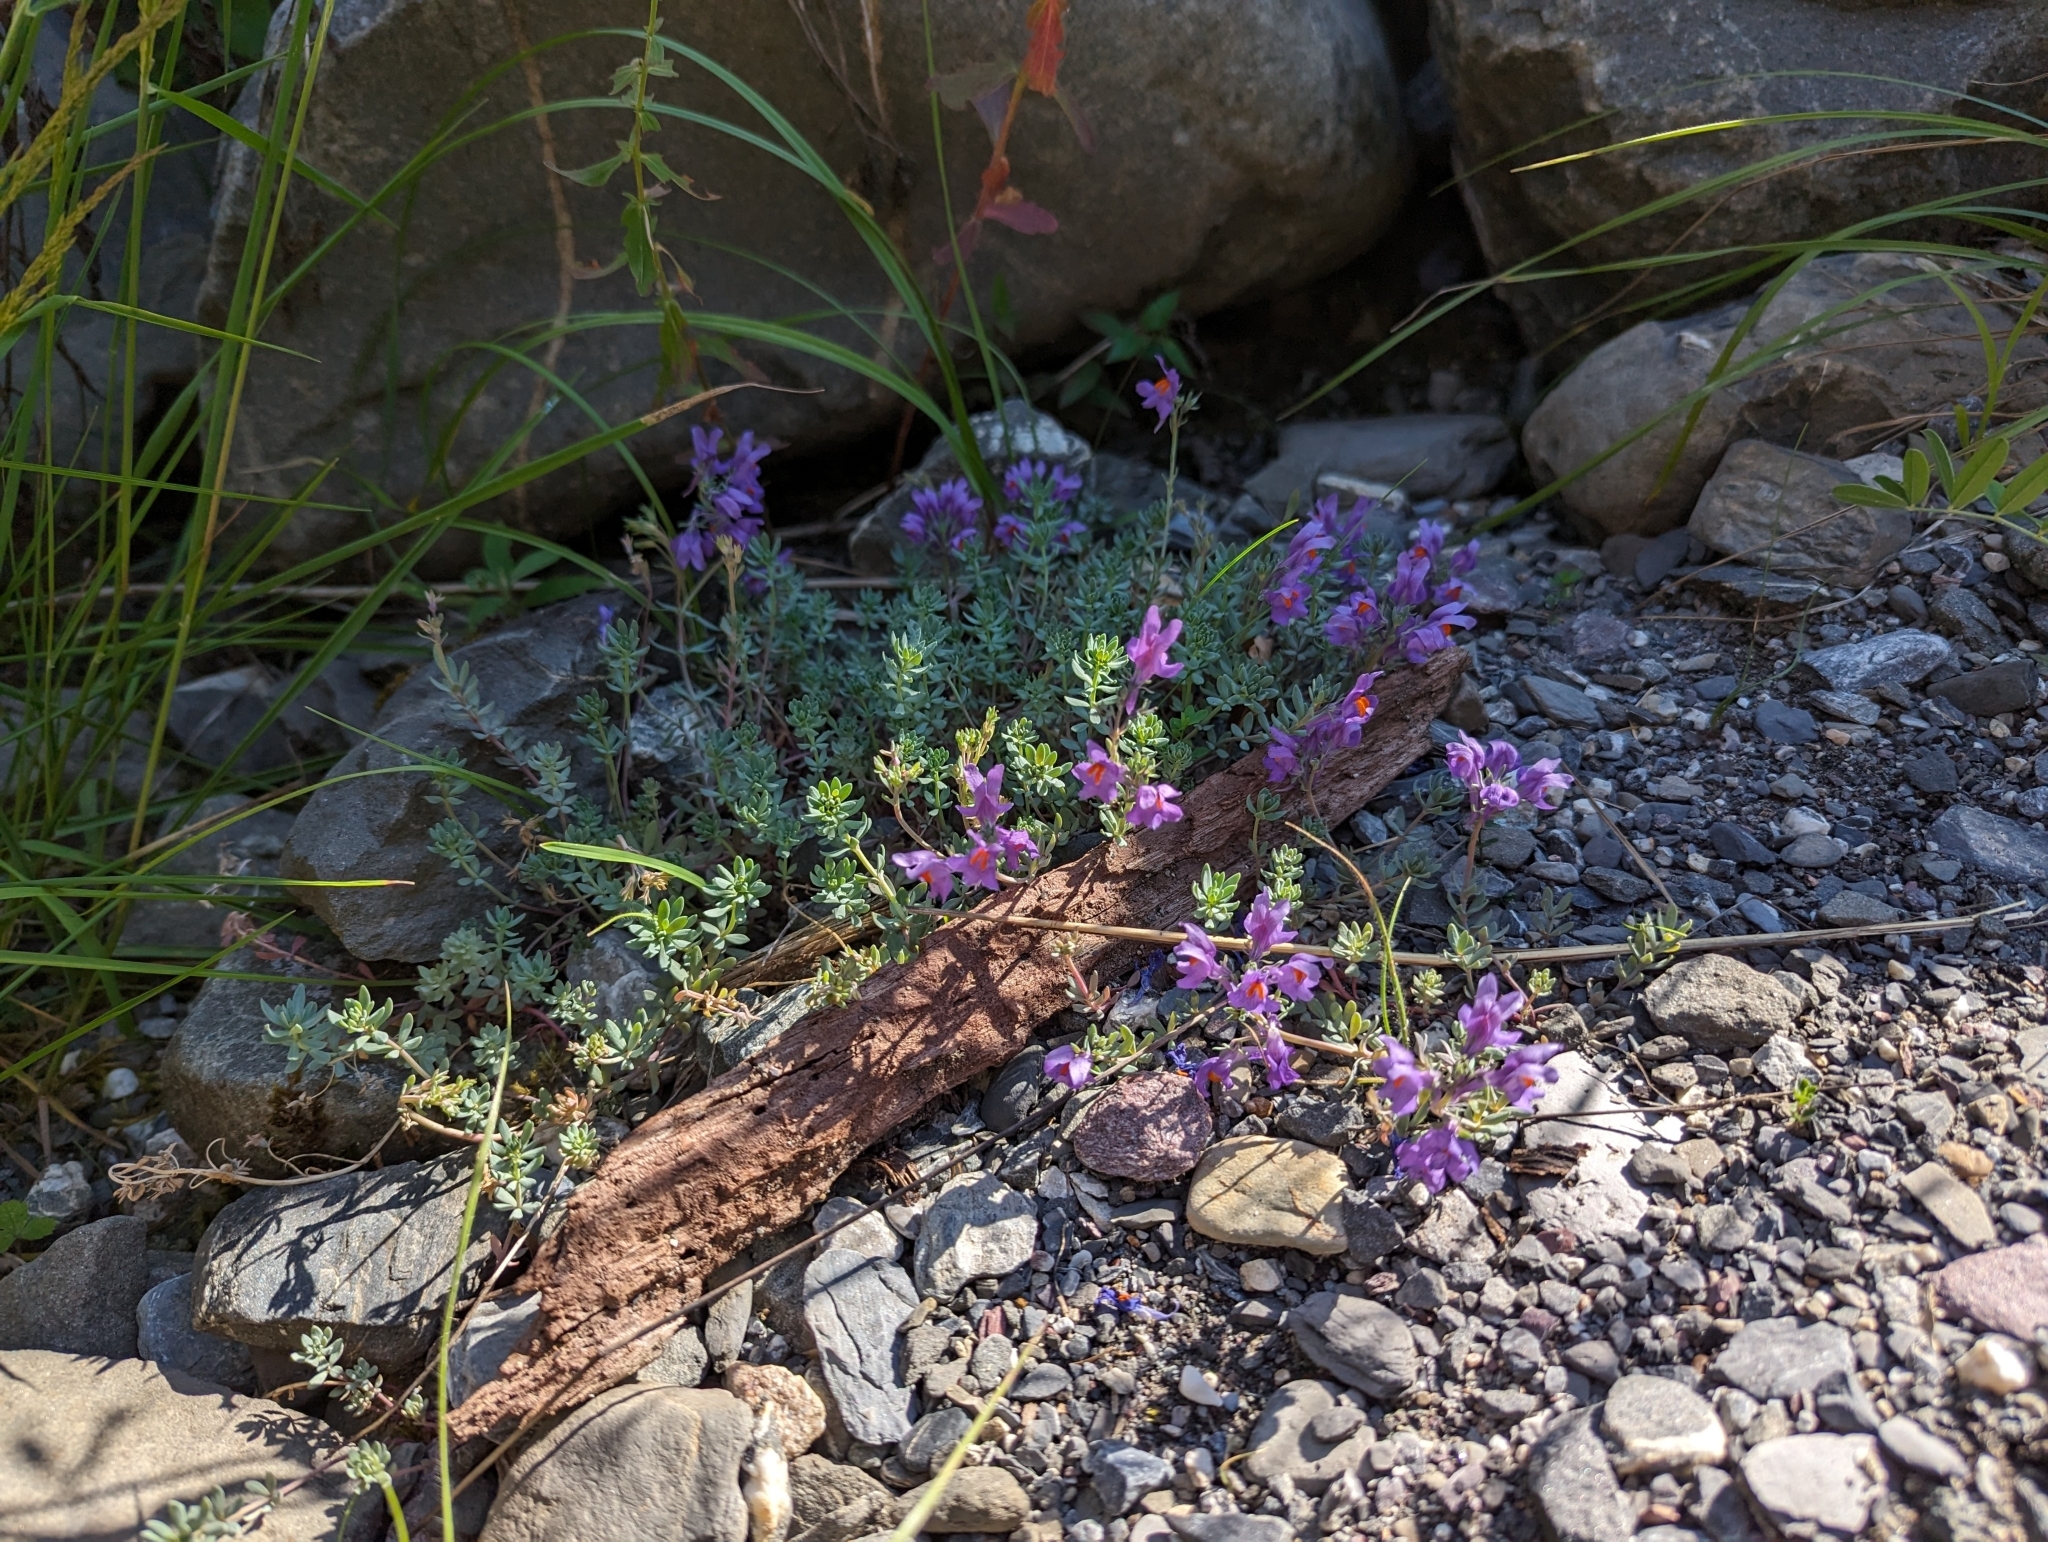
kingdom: Plantae
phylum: Tracheophyta
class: Magnoliopsida
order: Lamiales
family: Plantaginaceae
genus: Linaria
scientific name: Linaria alpina
